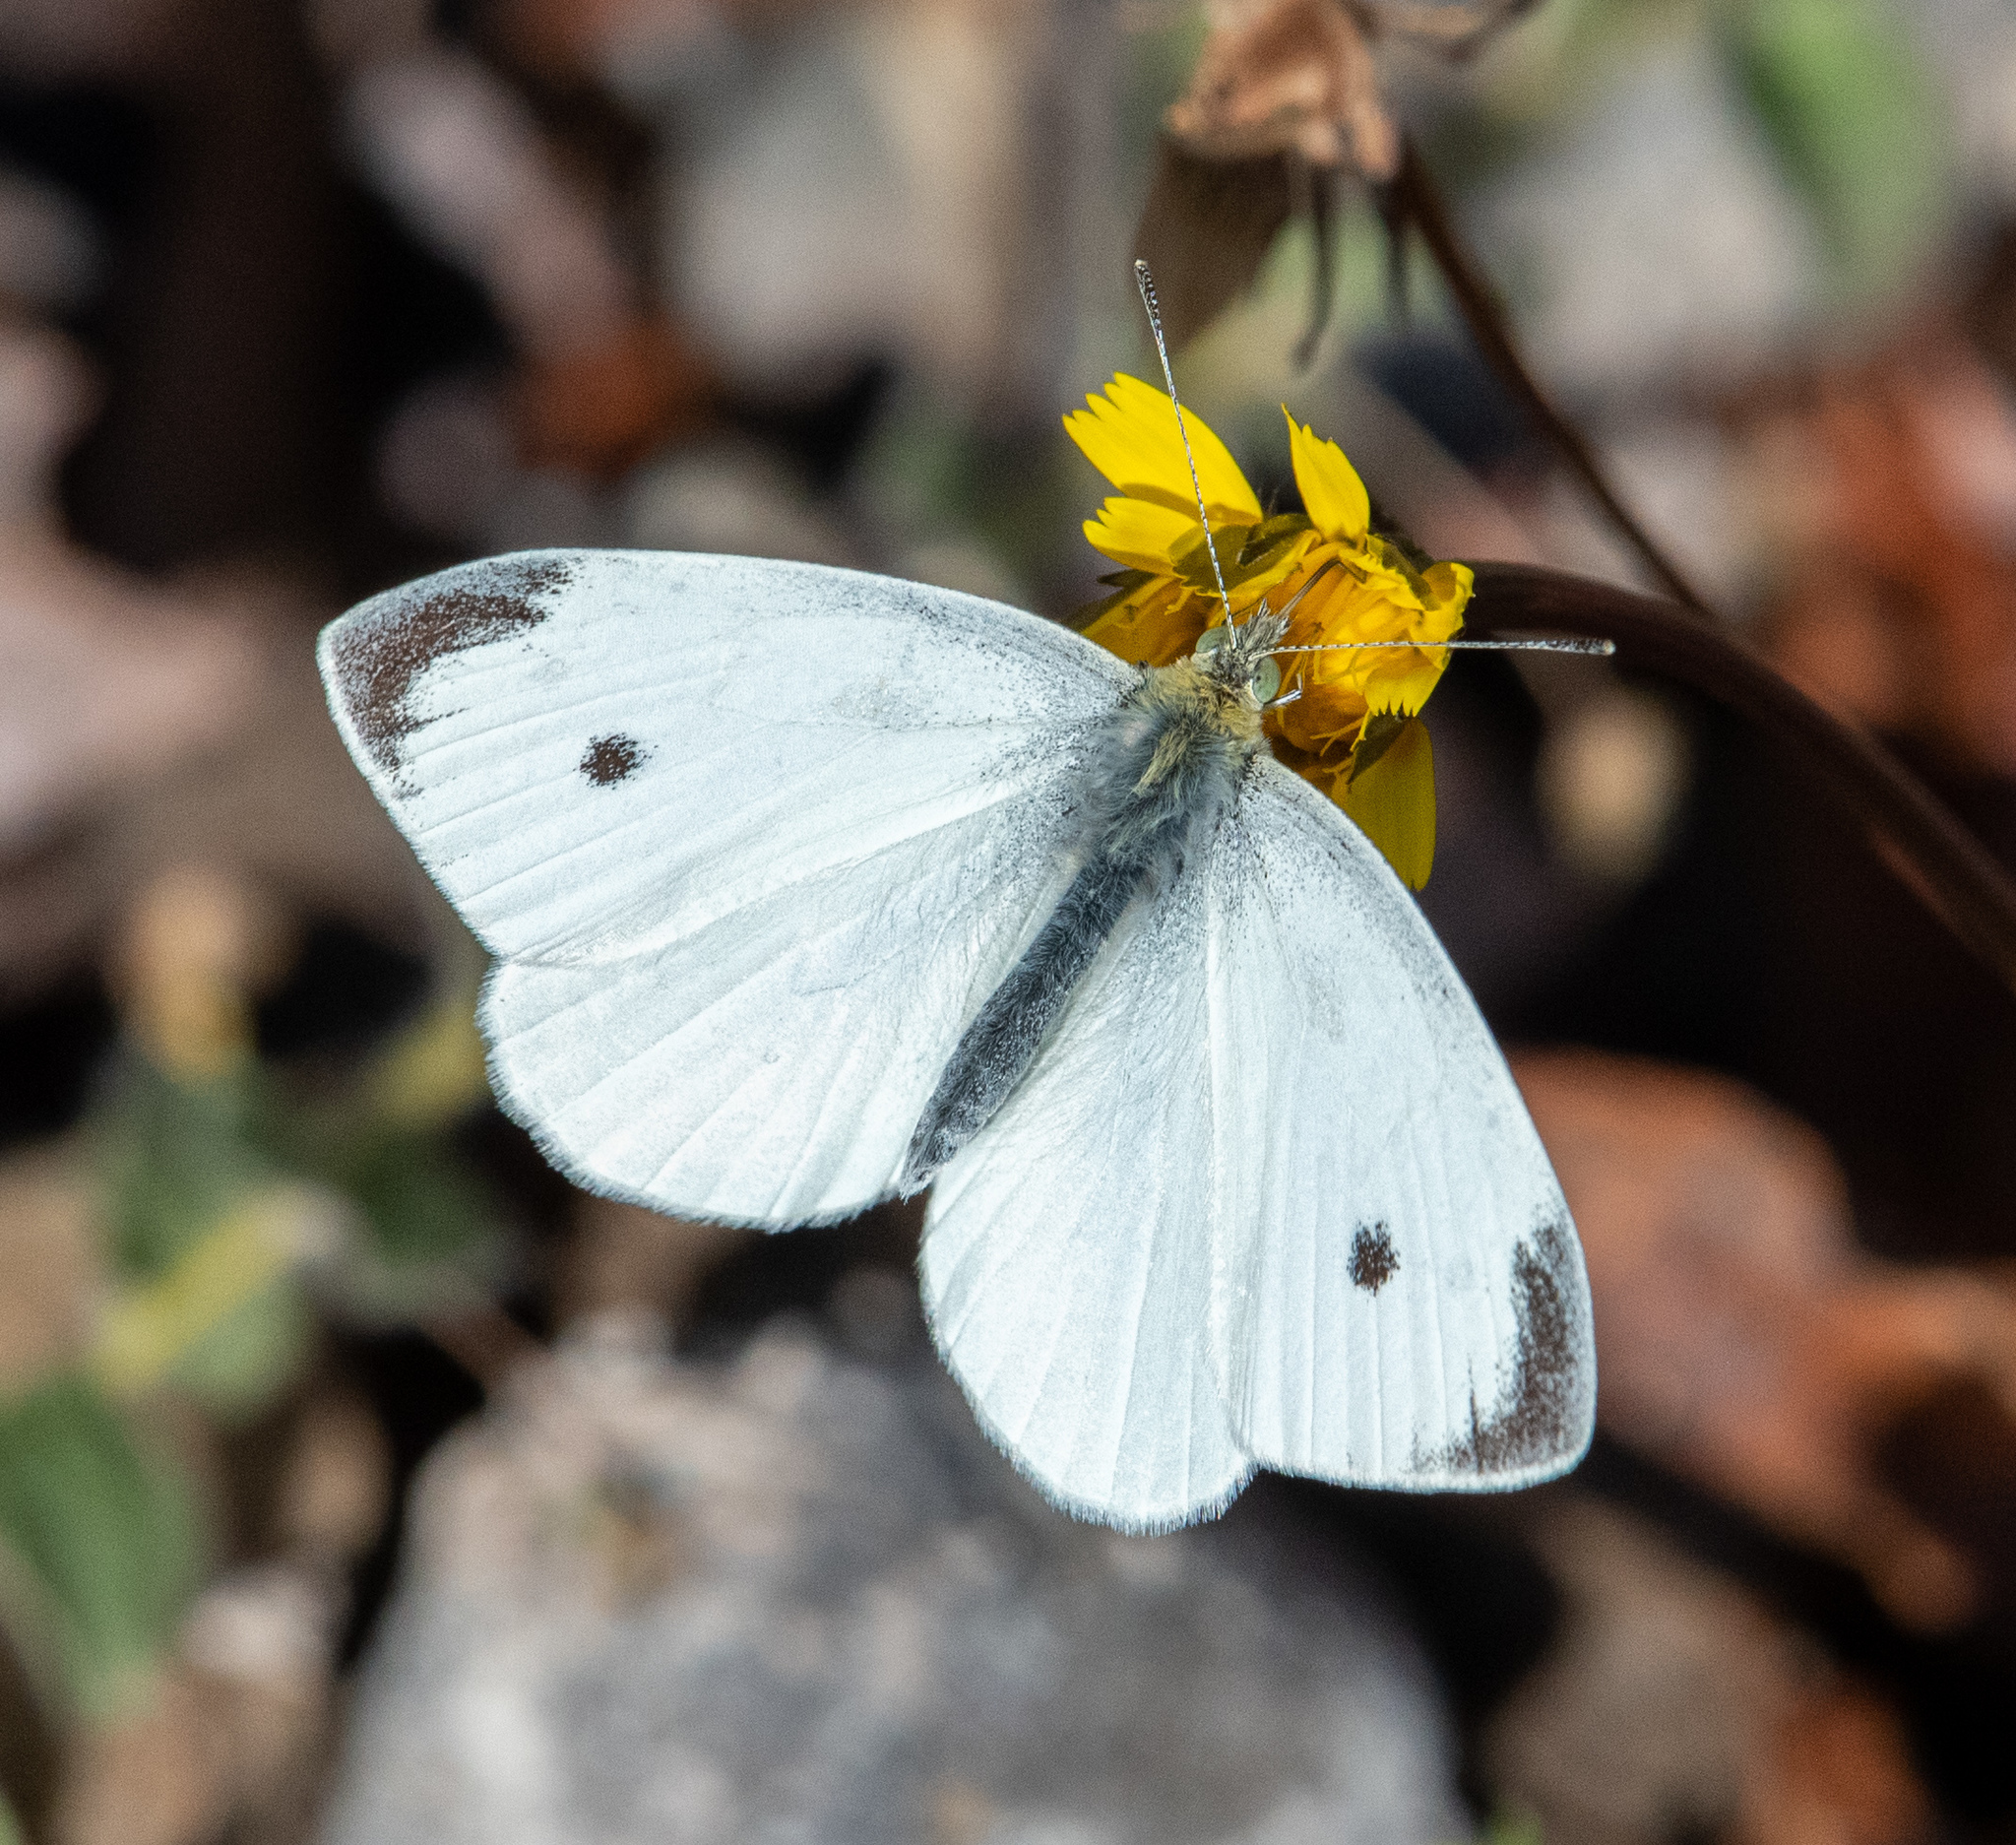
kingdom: Animalia
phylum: Arthropoda
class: Insecta
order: Lepidoptera
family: Pieridae
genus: Pieris
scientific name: Pieris rapae
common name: Small white
